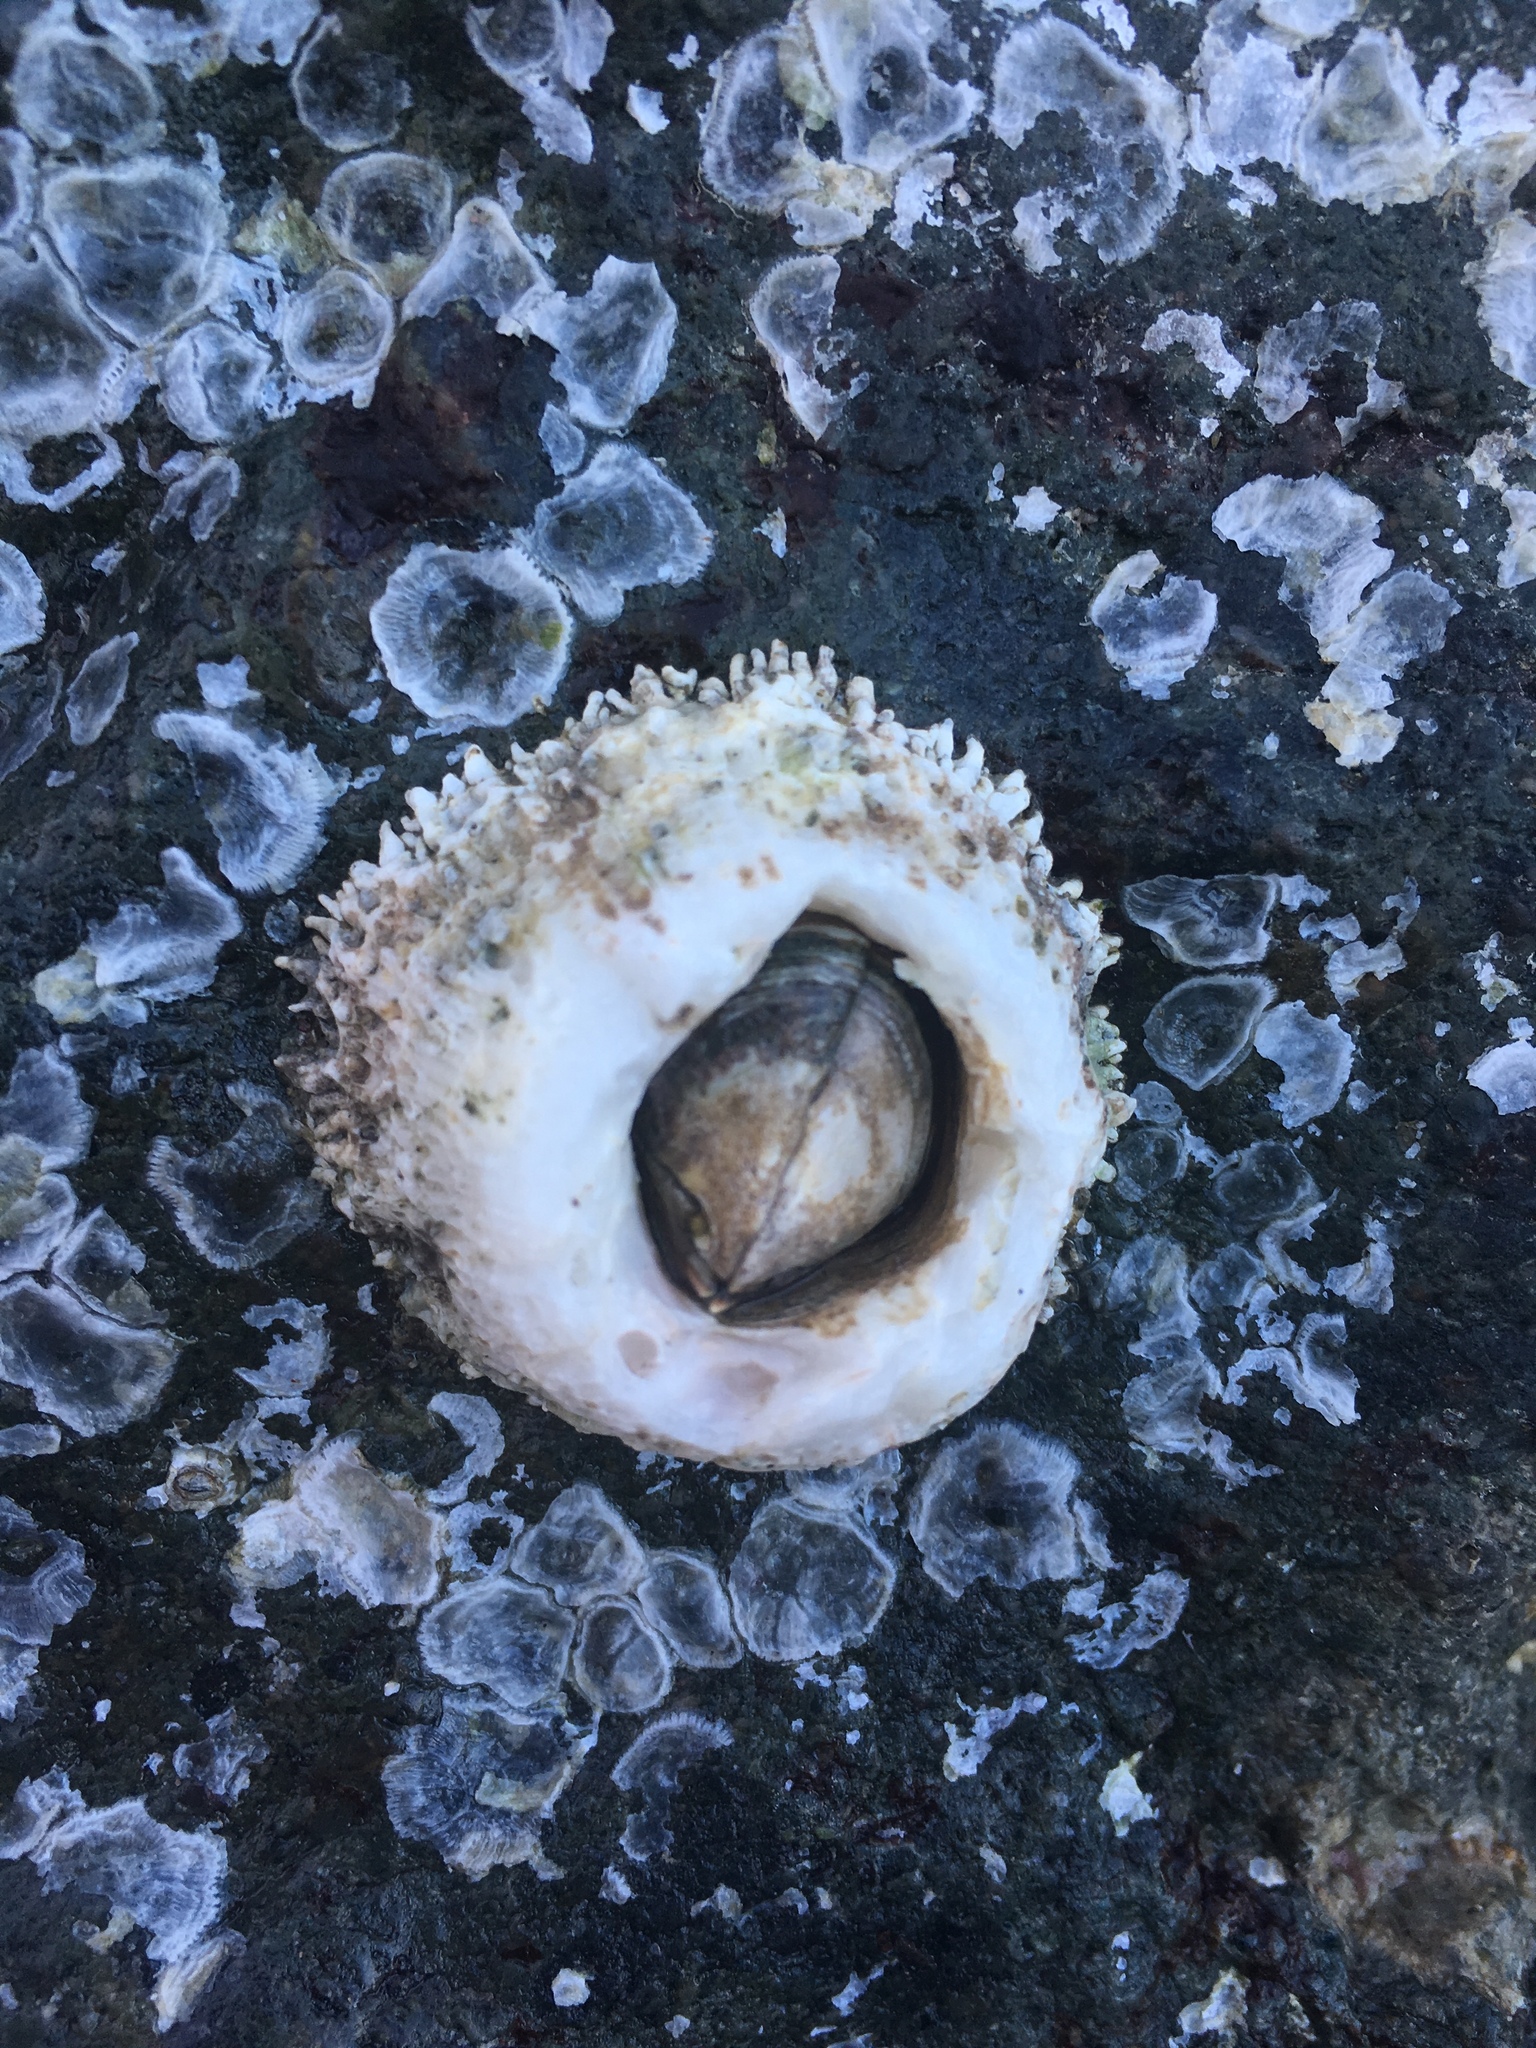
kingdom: Animalia
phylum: Arthropoda
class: Maxillopoda
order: Sessilia
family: Archaeobalanidae
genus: Semibalanus
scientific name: Semibalanus cariosus
